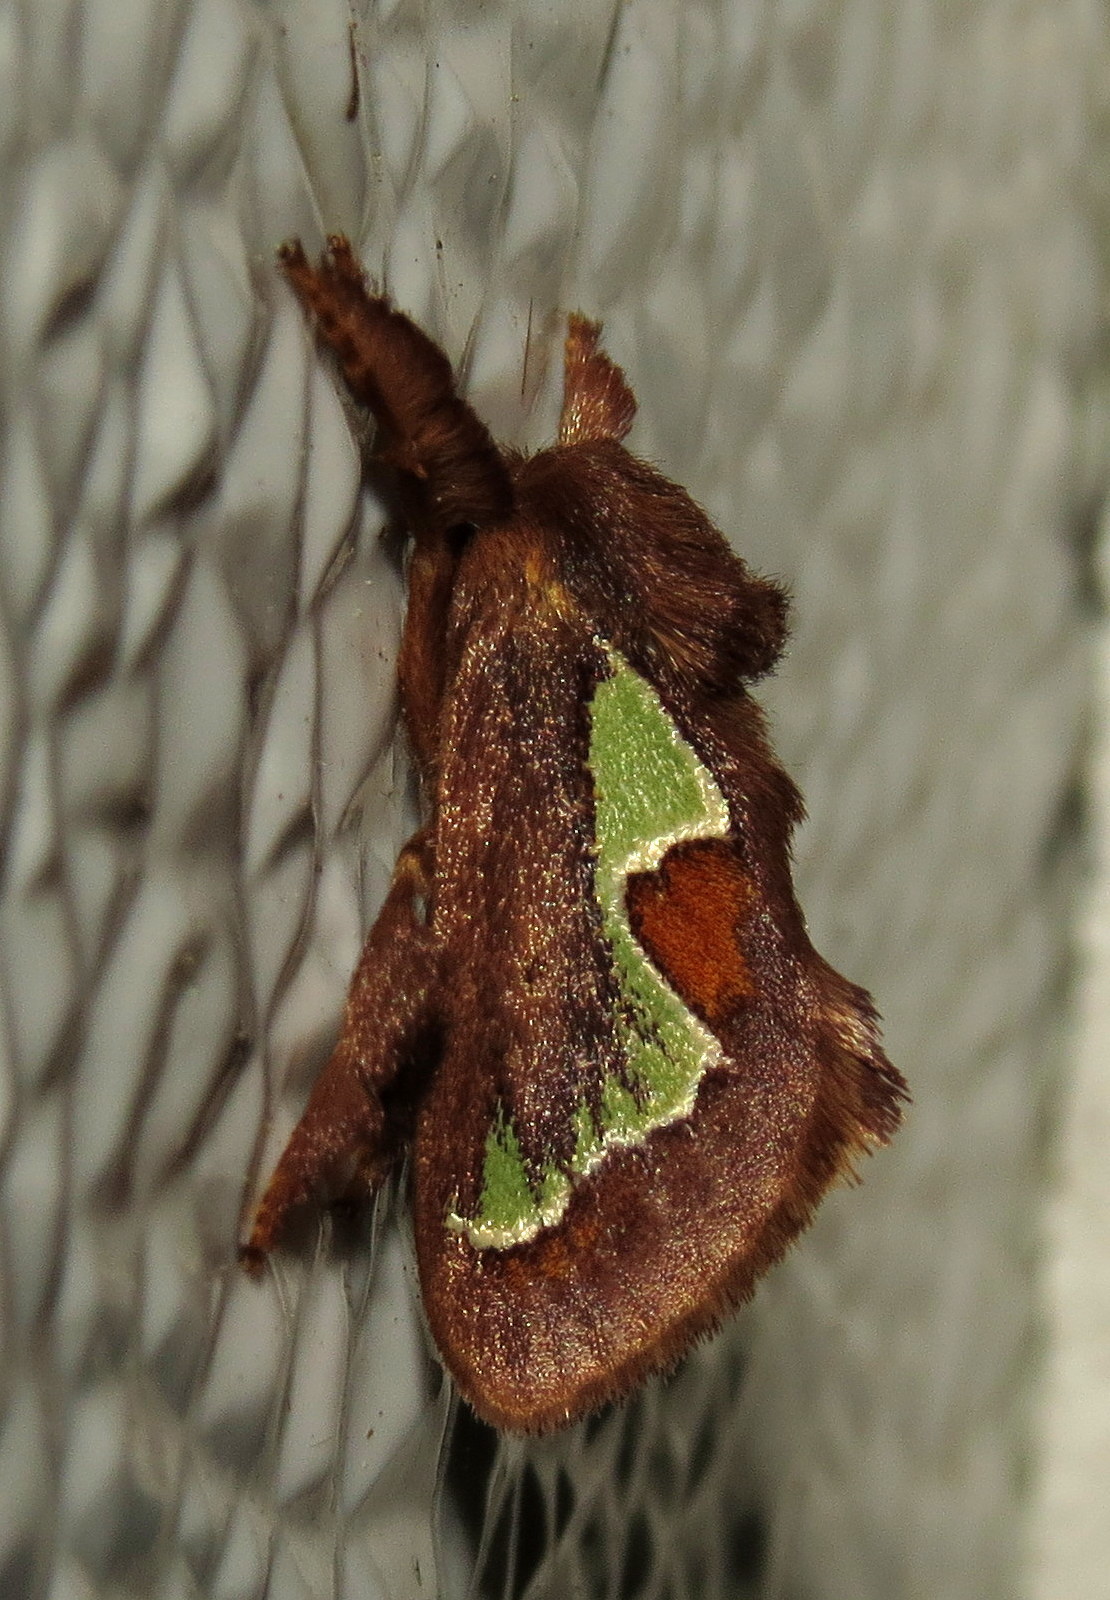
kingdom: Animalia
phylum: Arthropoda
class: Insecta
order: Lepidoptera
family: Limacodidae
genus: Euclea
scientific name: Euclea delphinii
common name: Spiny oak-slug moth
